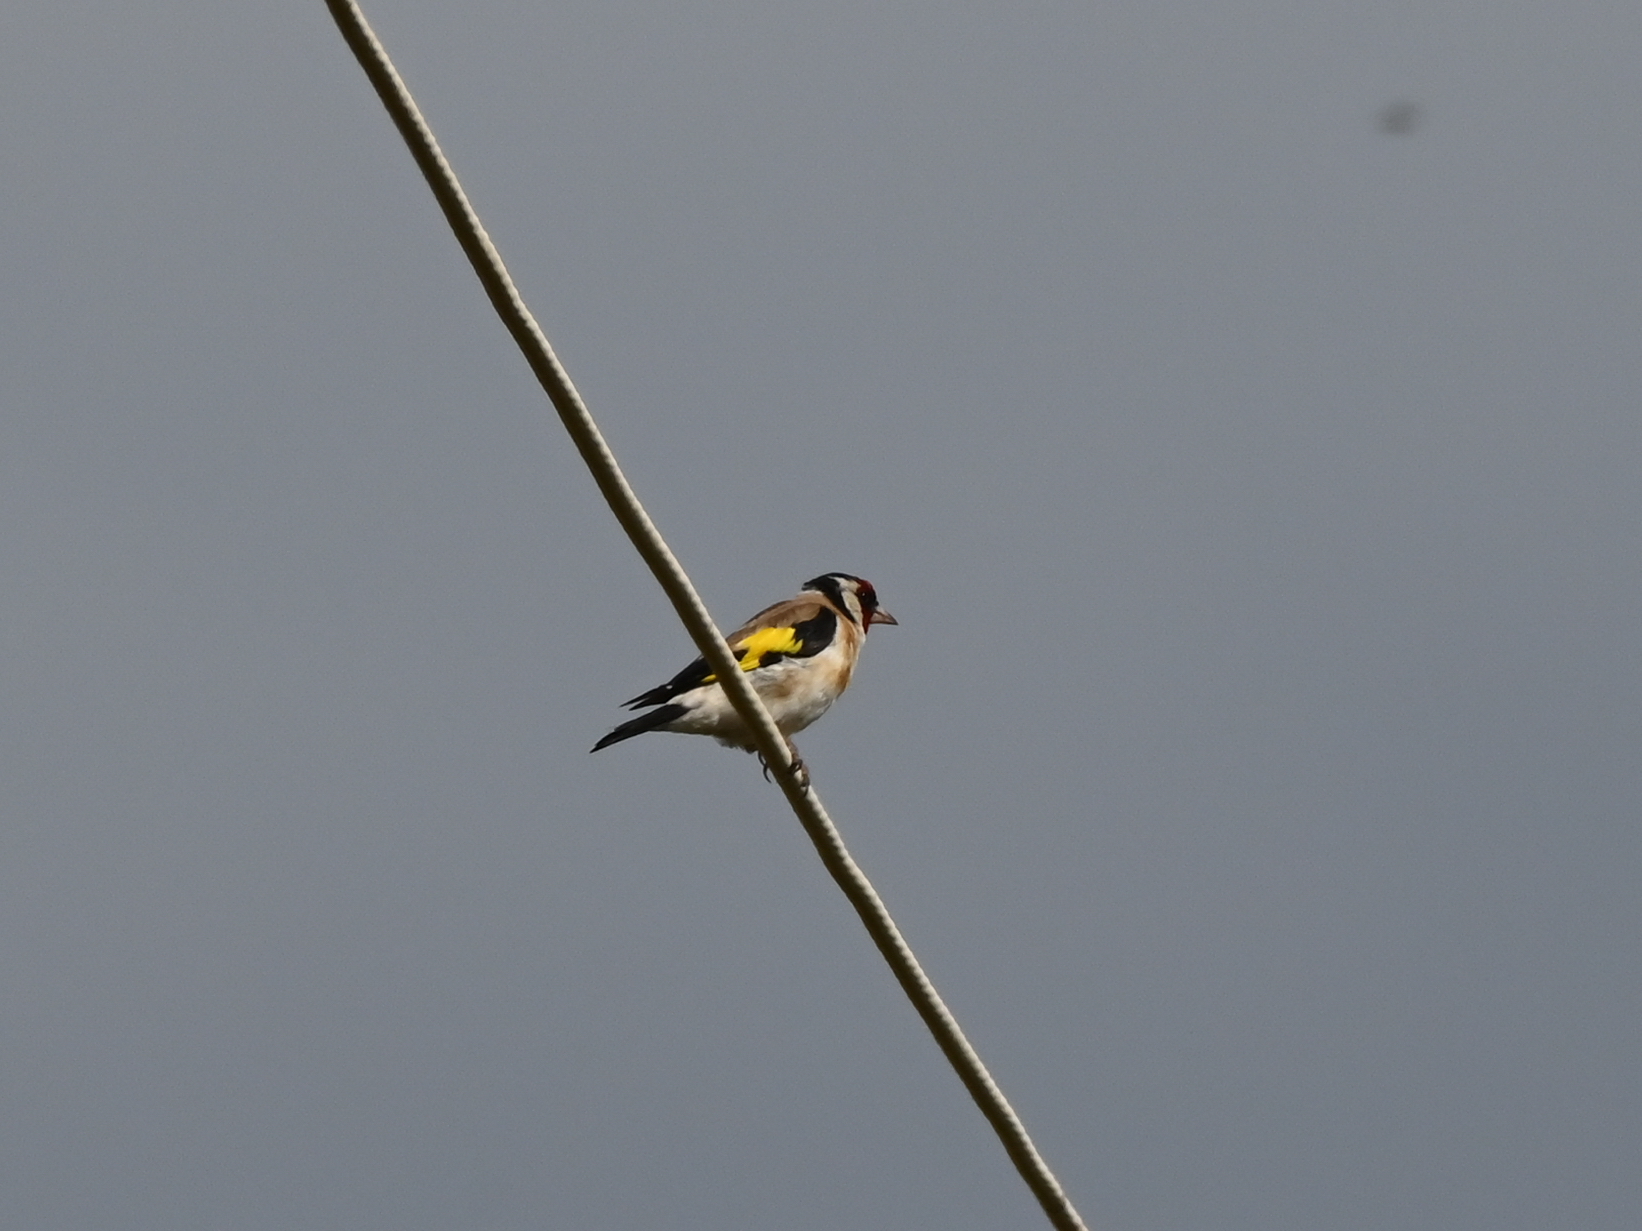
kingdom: Animalia
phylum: Chordata
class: Aves
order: Passeriformes
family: Fringillidae
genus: Carduelis
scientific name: Carduelis carduelis
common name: European goldfinch
